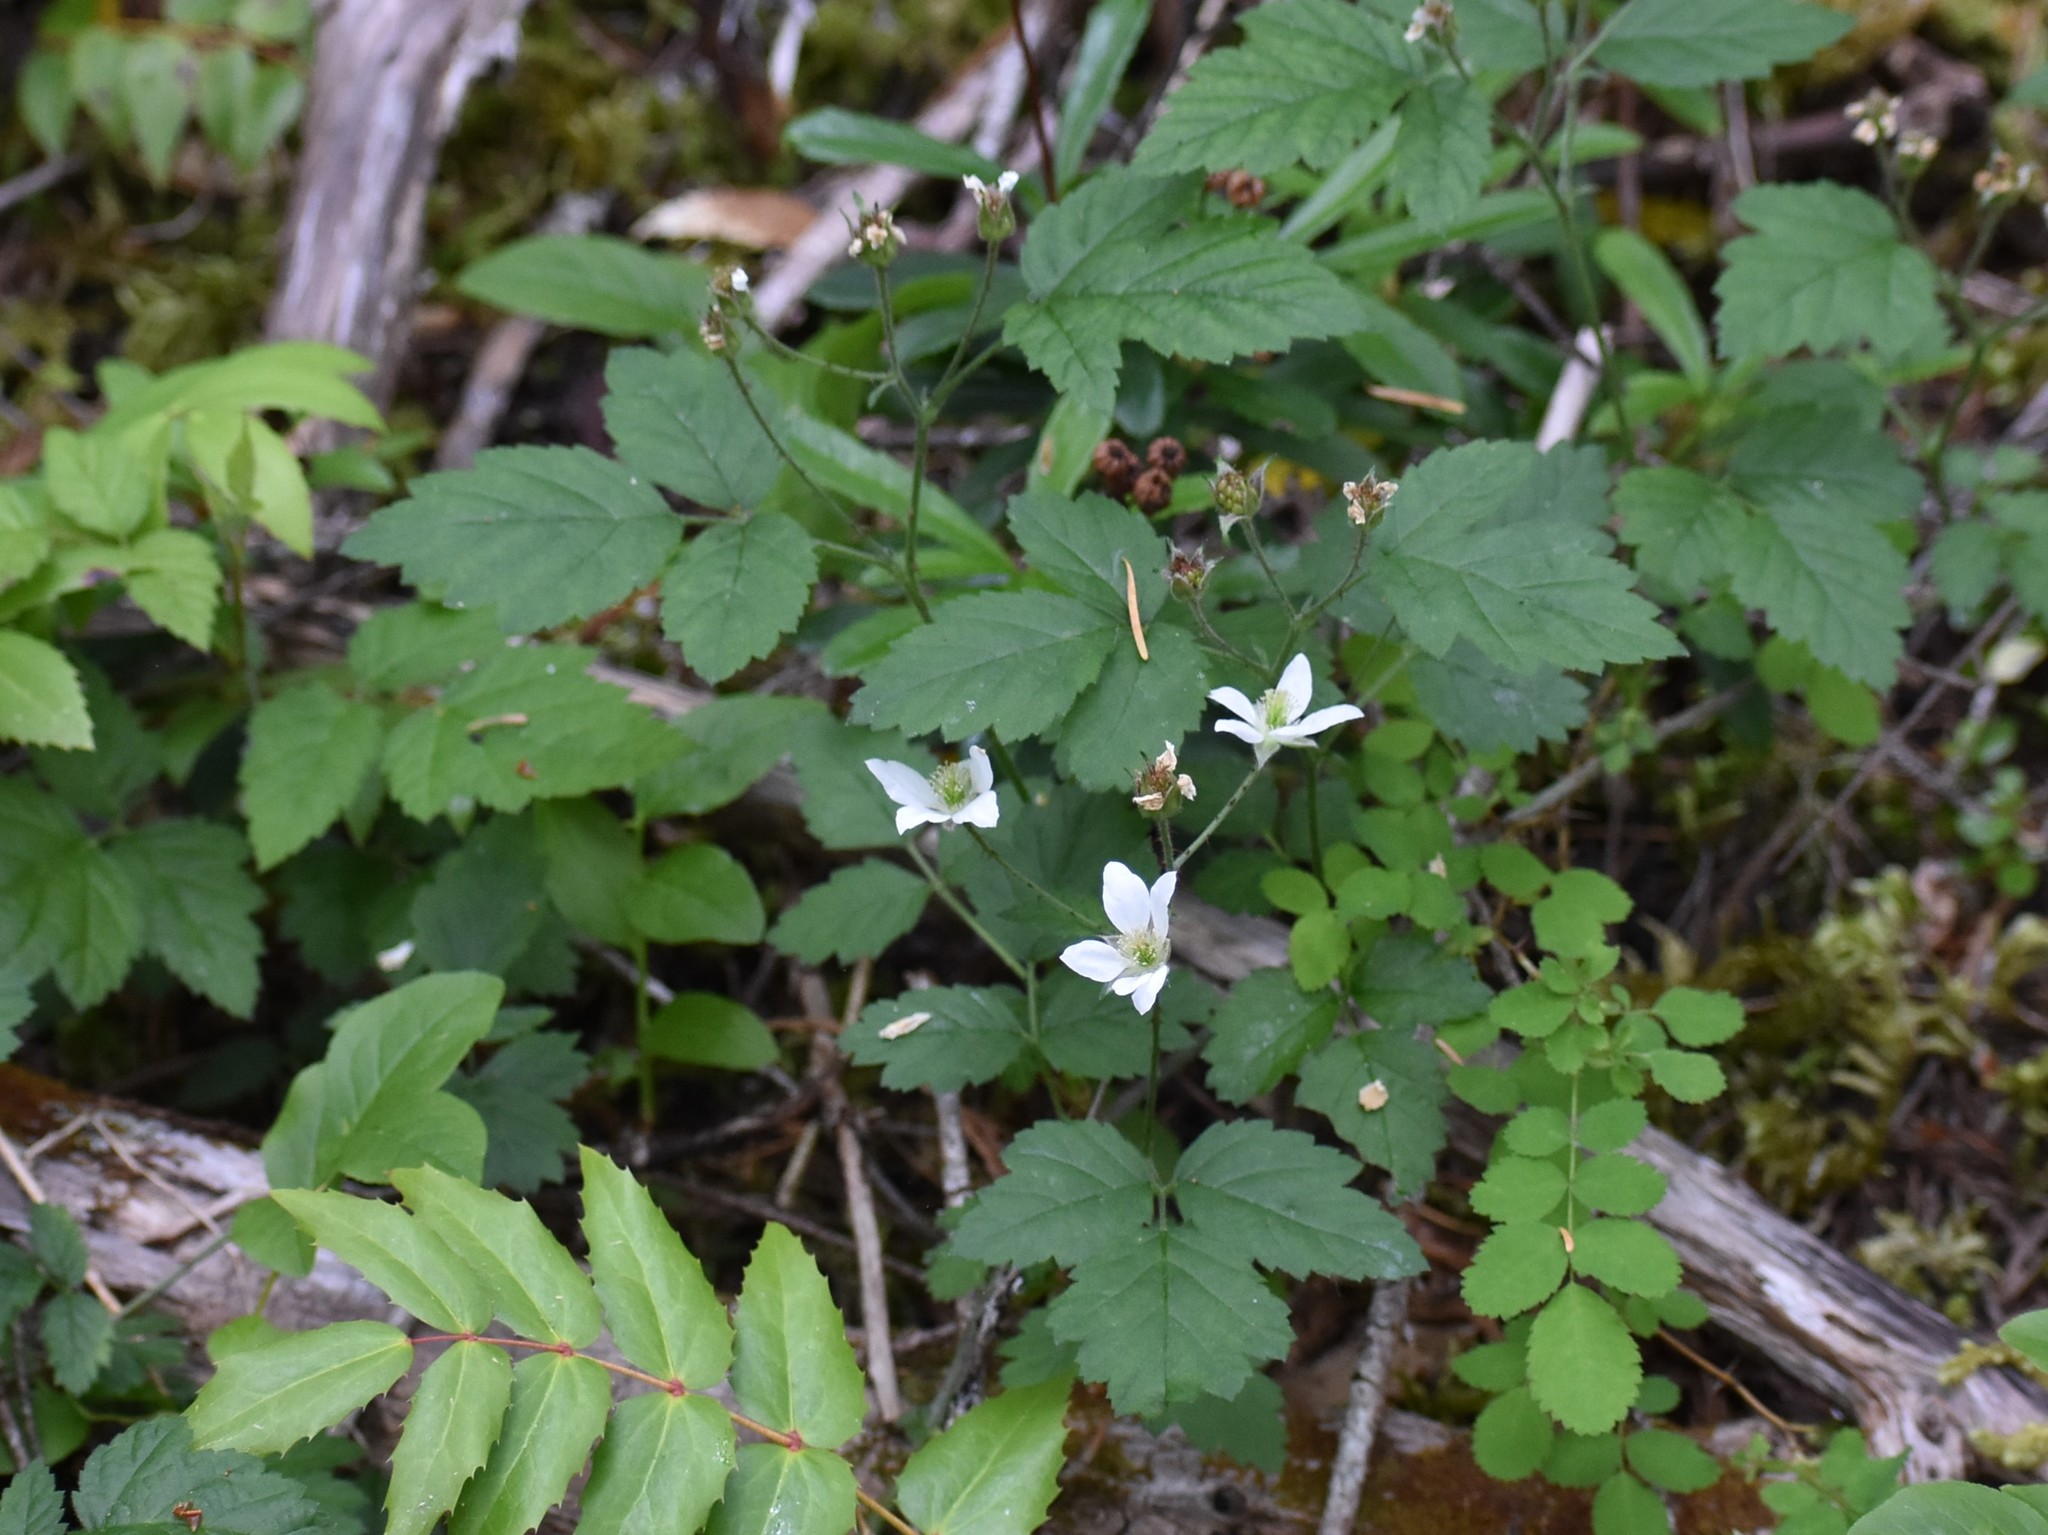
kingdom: Plantae
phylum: Tracheophyta
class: Magnoliopsida
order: Rosales
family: Rosaceae
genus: Rubus
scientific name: Rubus ursinus
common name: Pacific blackberry
